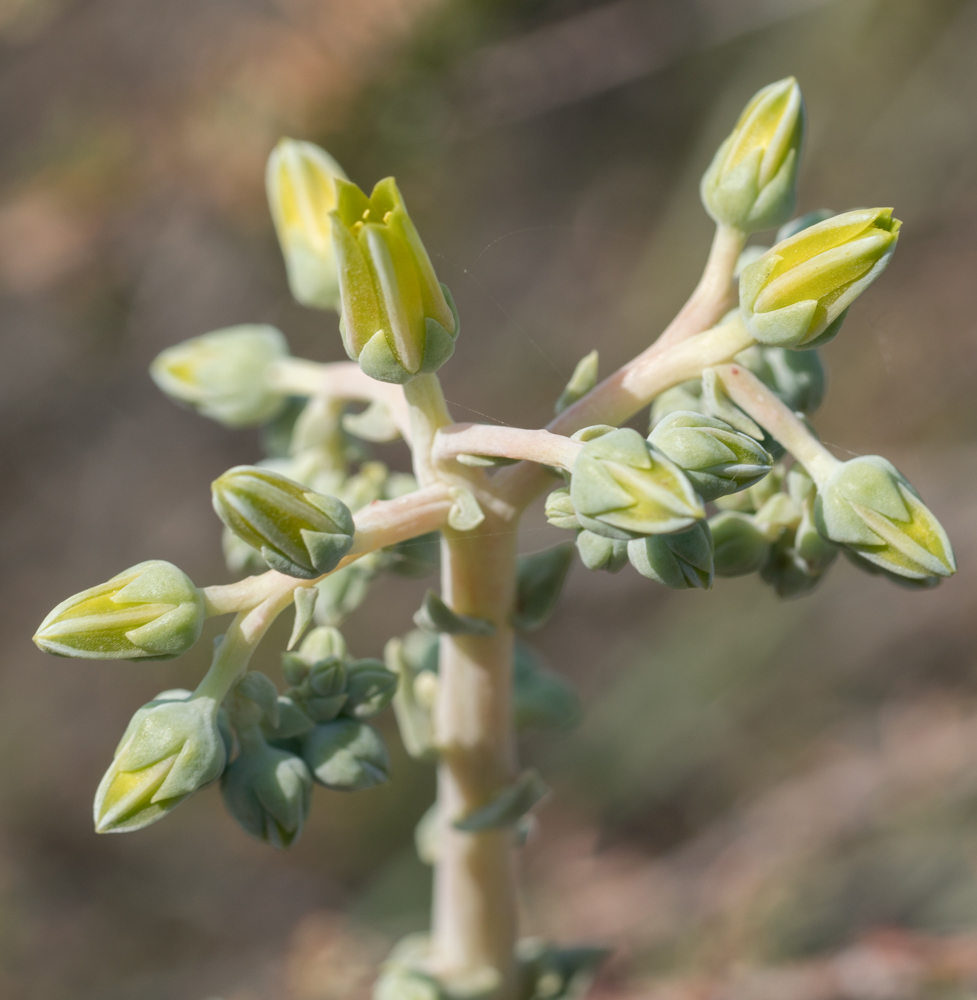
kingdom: Plantae
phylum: Tracheophyta
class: Magnoliopsida
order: Saxifragales
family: Crassulaceae
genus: Dudleya
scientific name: Dudleya lanceolata
